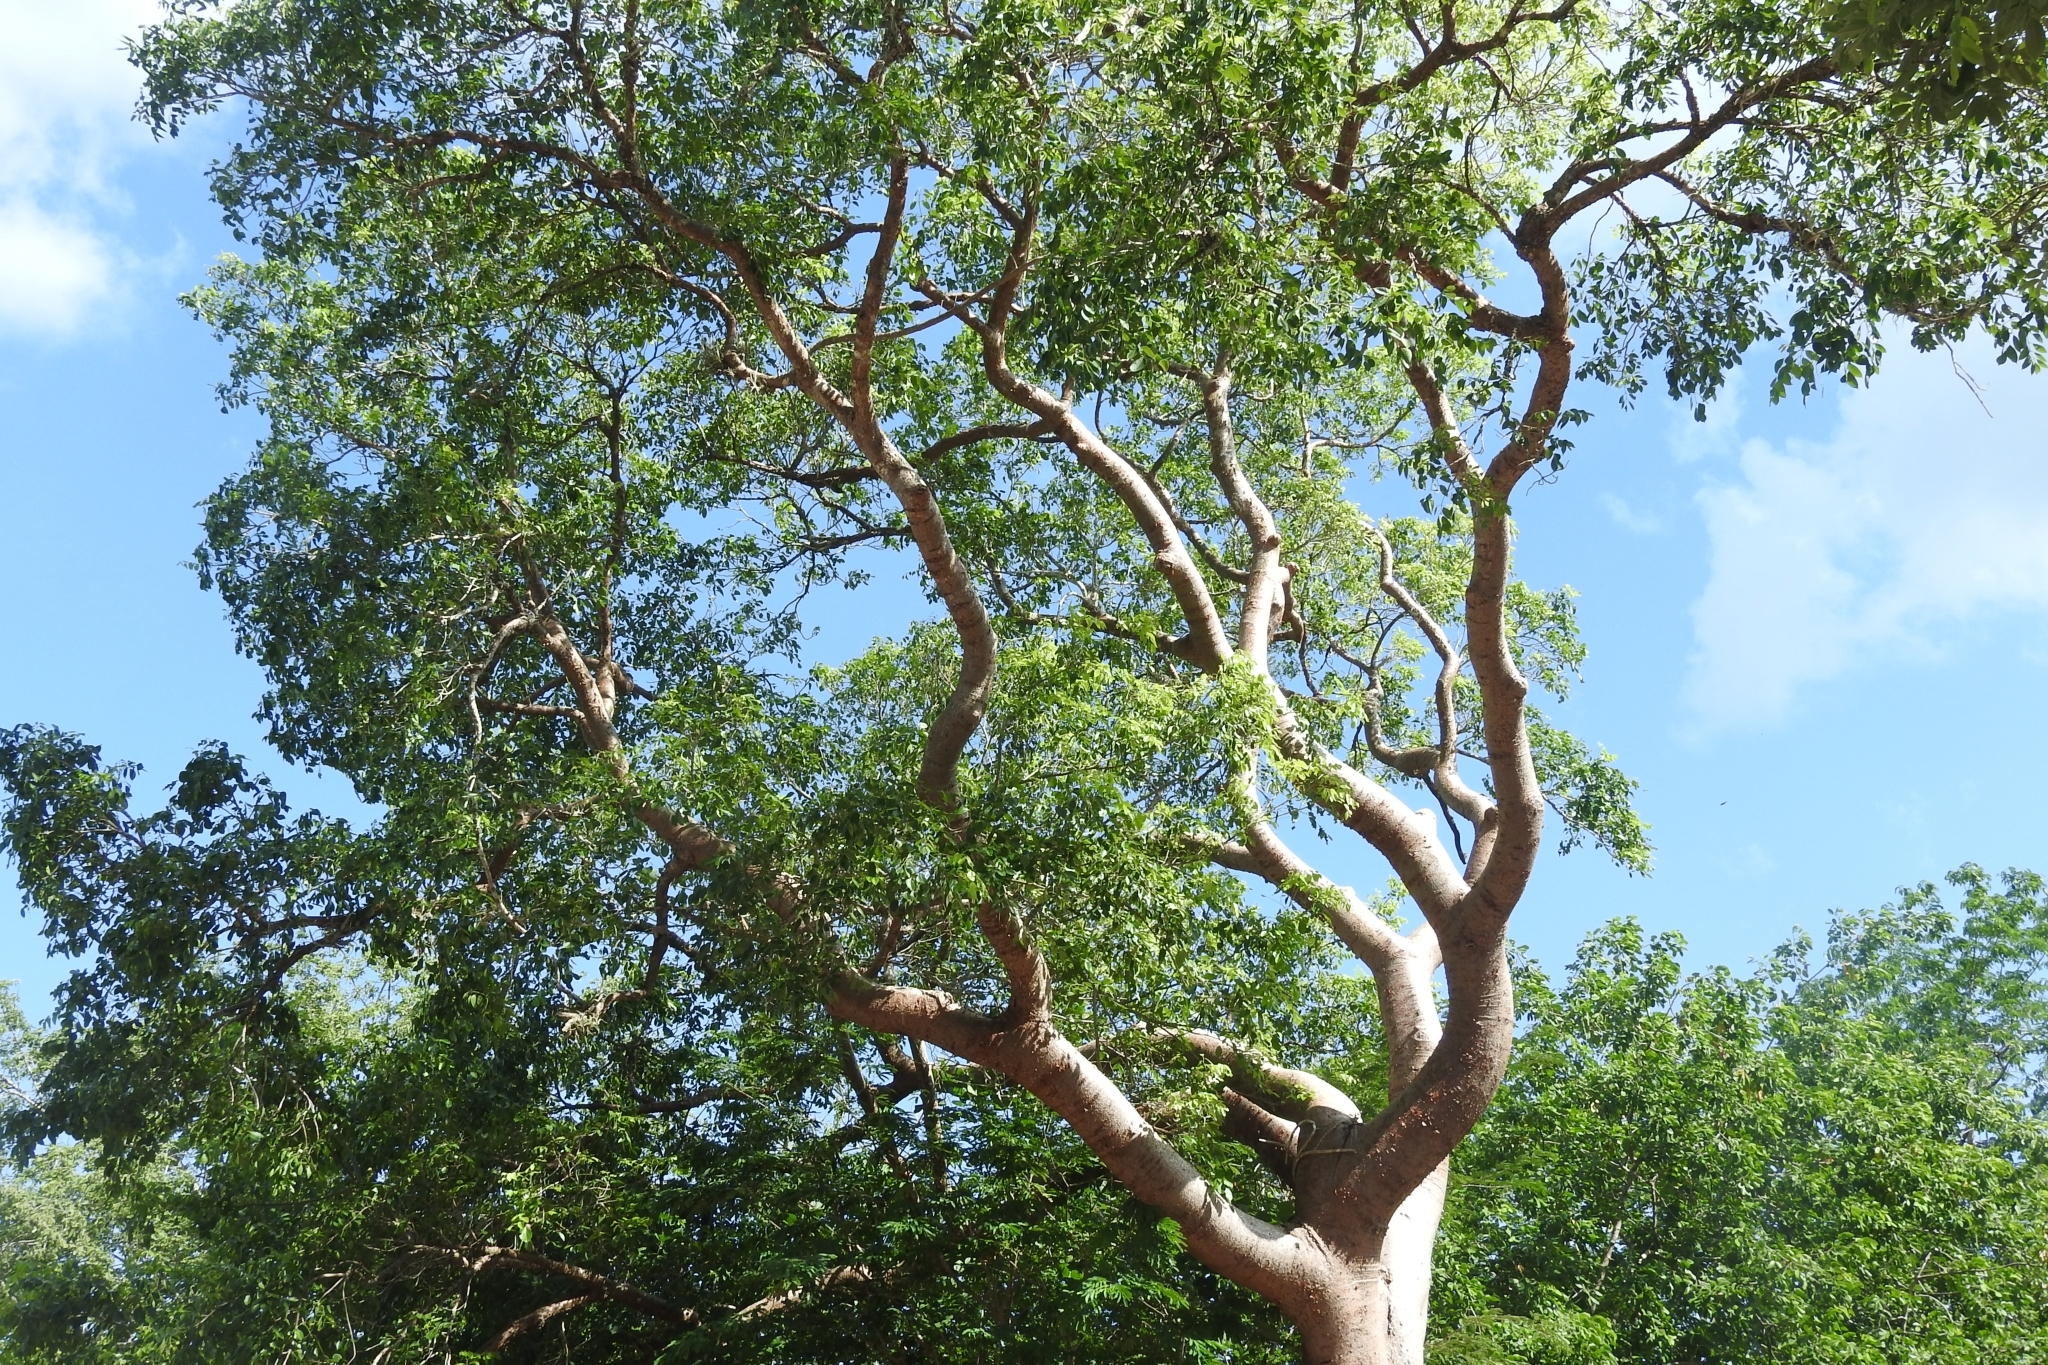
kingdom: Plantae
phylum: Tracheophyta
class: Magnoliopsida
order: Sapindales
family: Burseraceae
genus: Bursera
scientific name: Bursera simaruba
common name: Turpentine tree
